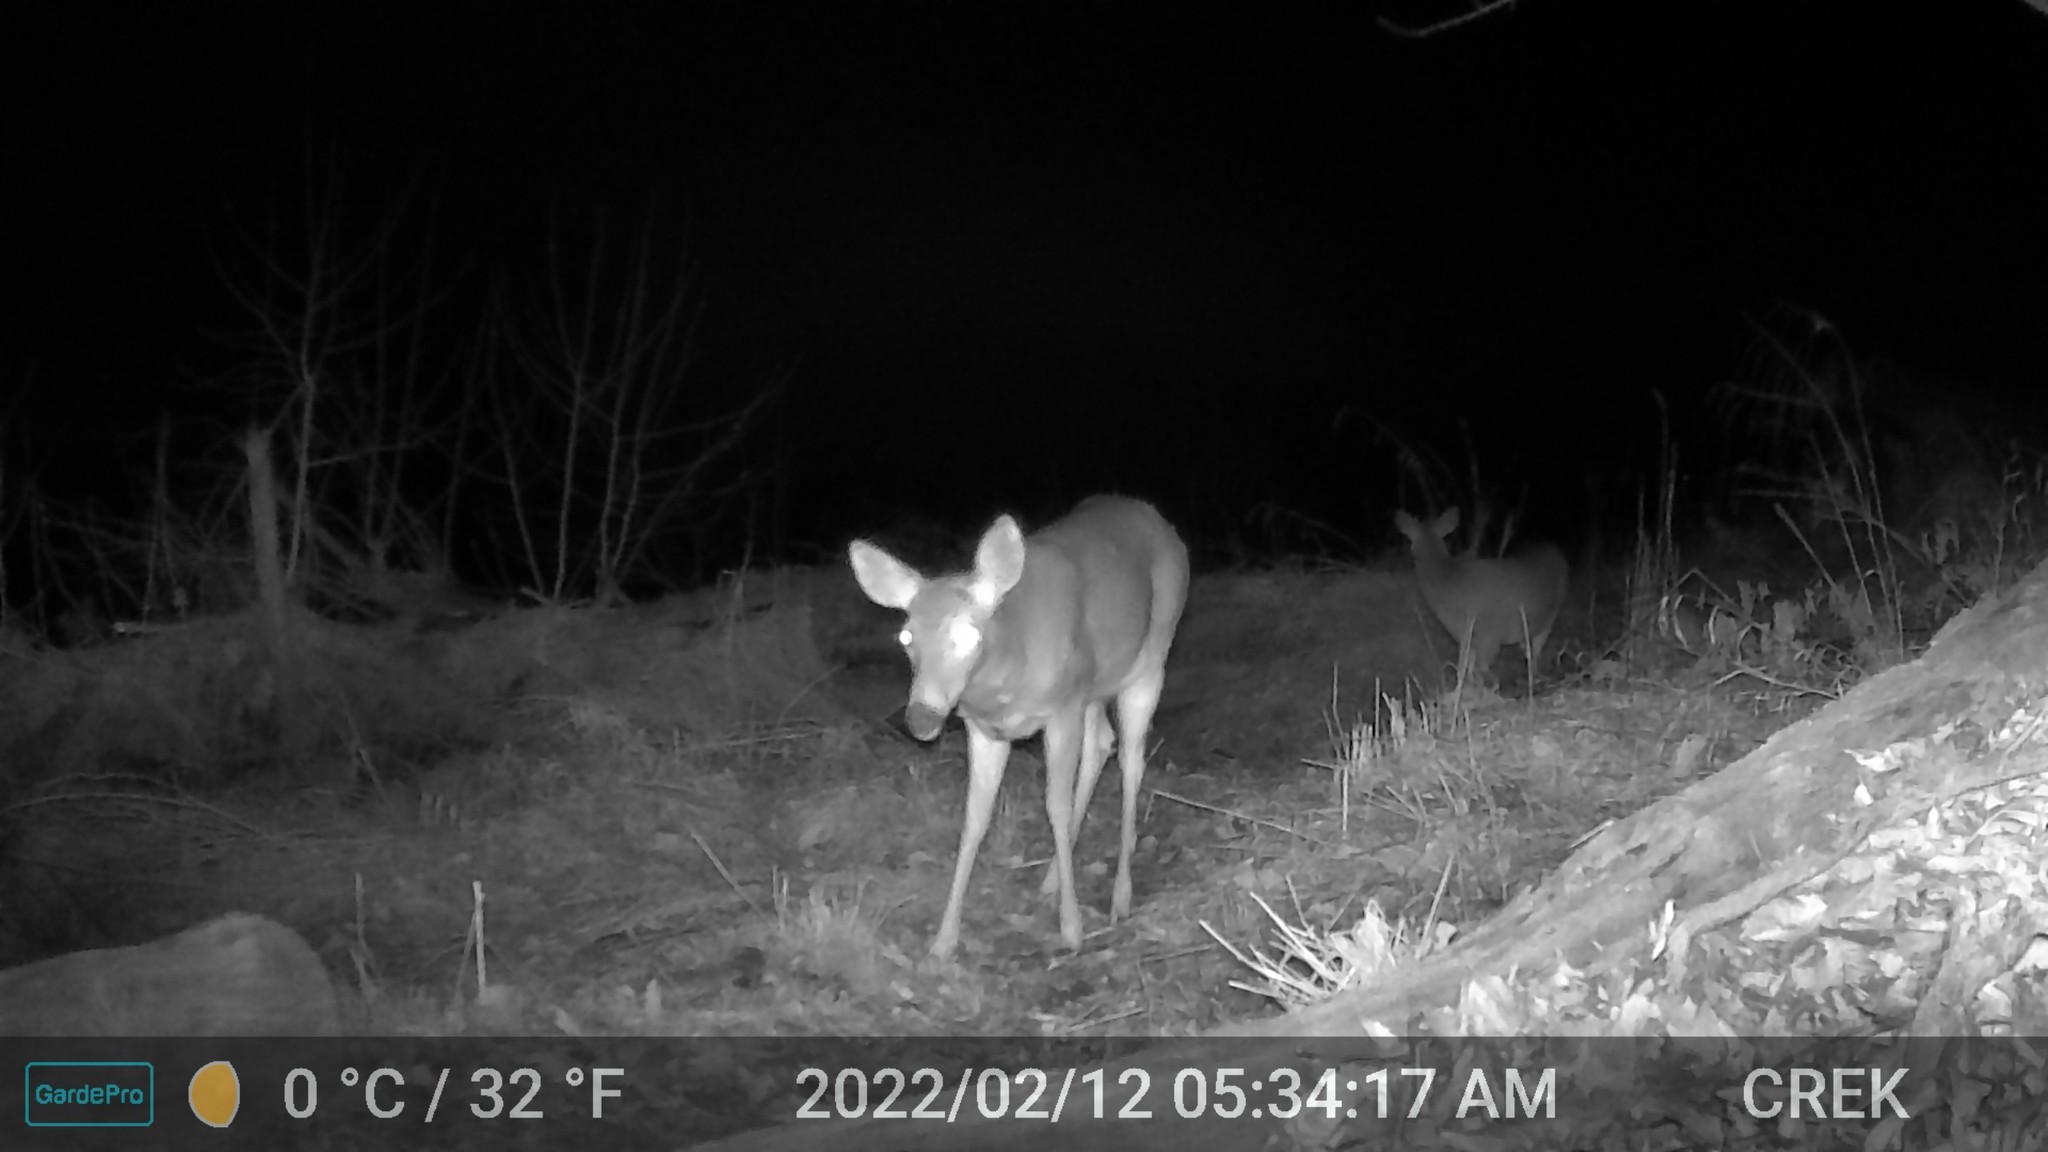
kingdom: Animalia
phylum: Chordata
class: Mammalia
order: Artiodactyla
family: Cervidae
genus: Odocoileus
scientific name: Odocoileus virginianus
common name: White-tailed deer
